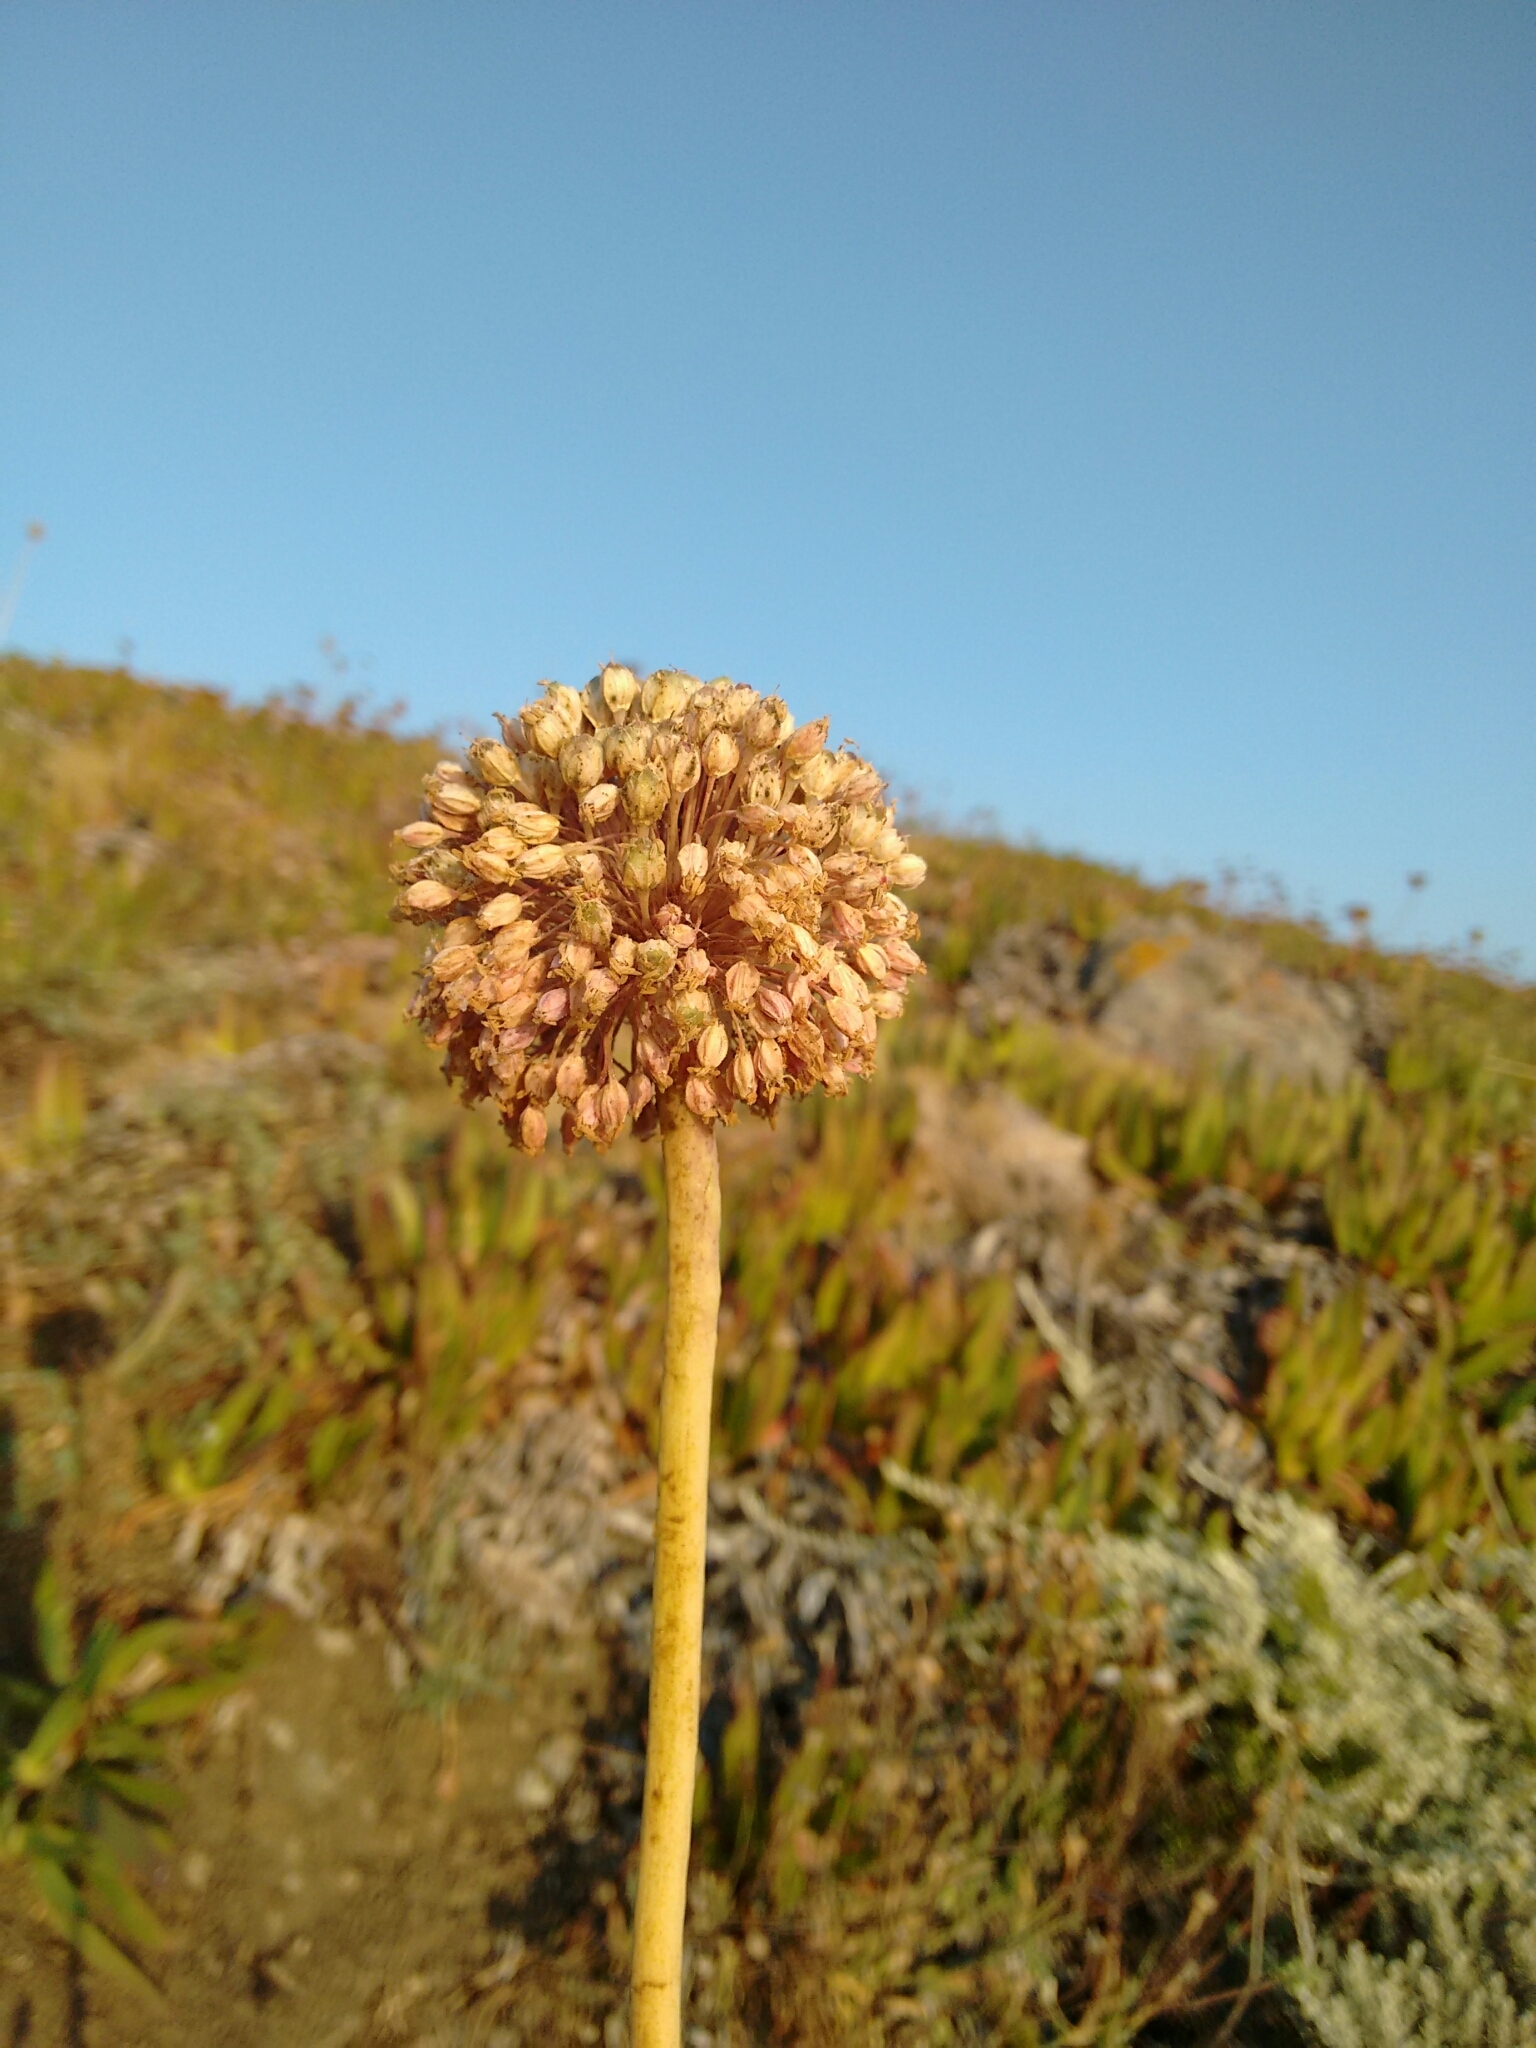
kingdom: Plantae
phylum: Tracheophyta
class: Liliopsida
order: Asparagales
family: Amaryllidaceae
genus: Allium
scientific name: Allium commutatum
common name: Sea garlic
